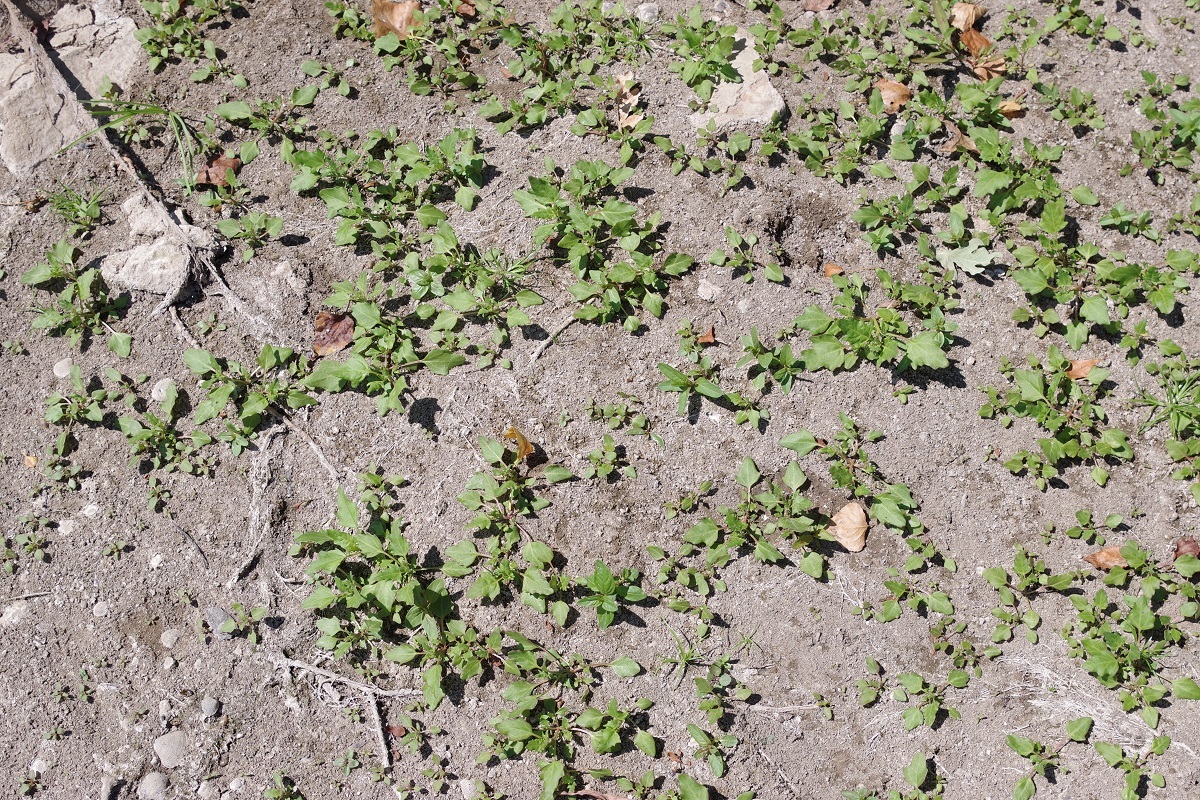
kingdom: Plantae
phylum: Tracheophyta
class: Magnoliopsida
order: Caryophyllales
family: Amaranthaceae
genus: Oxybasis
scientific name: Oxybasis rubra
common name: Red goosefoot
